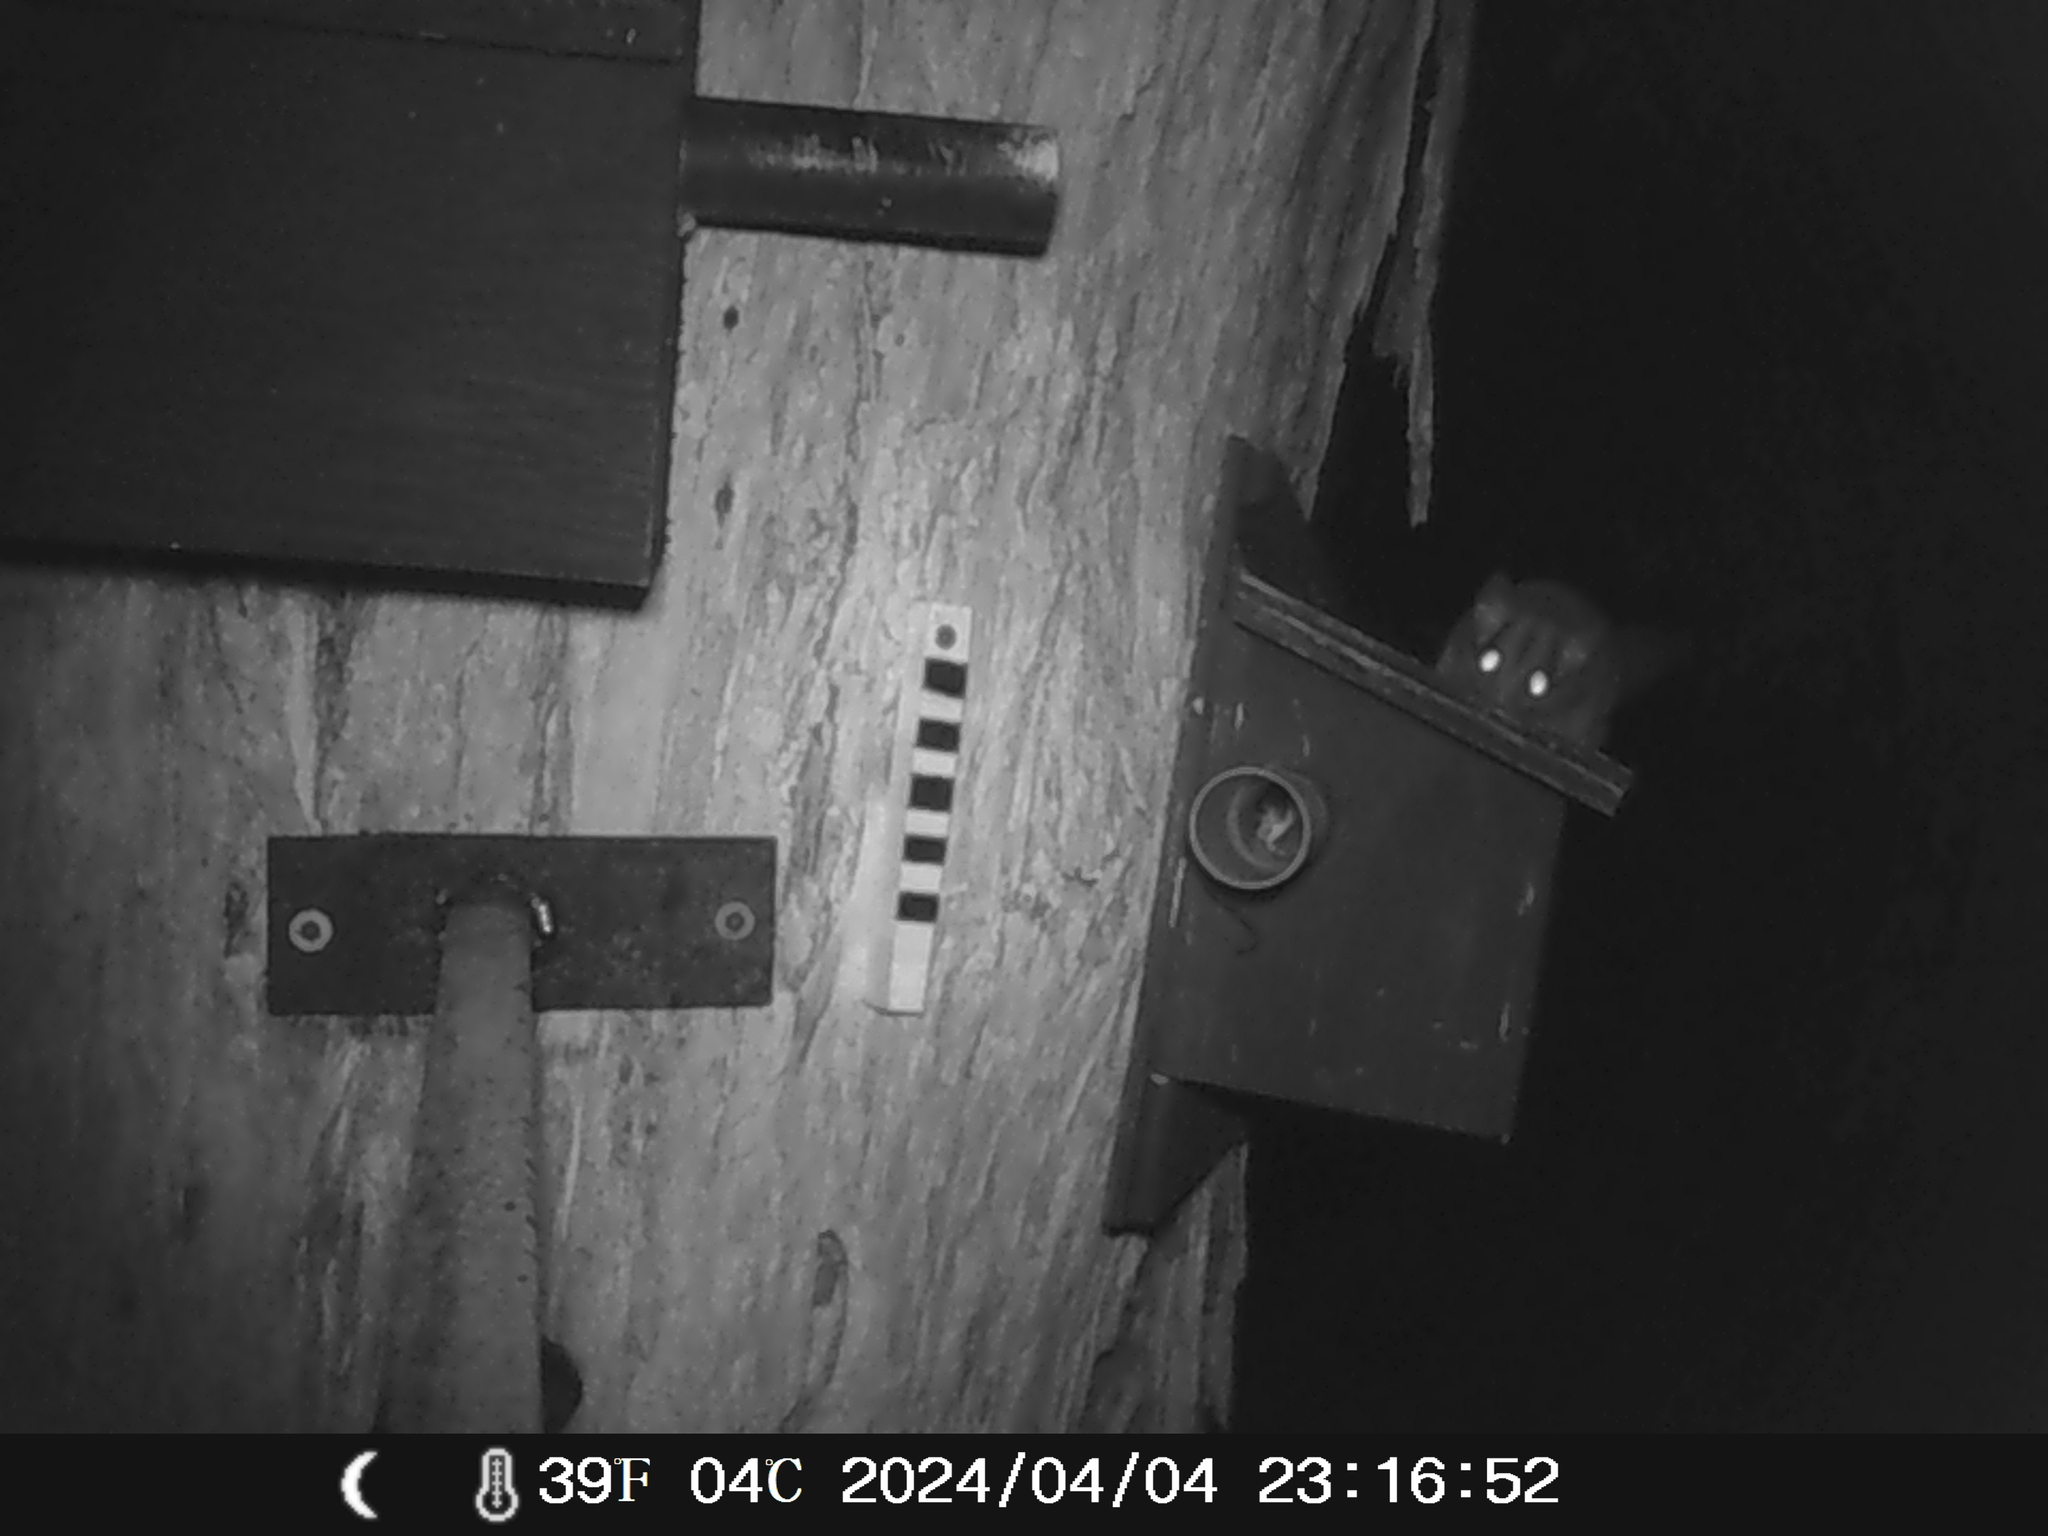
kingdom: Animalia
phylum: Chordata
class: Mammalia
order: Diprotodontia
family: Petauridae
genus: Petaurus
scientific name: Petaurus breviceps
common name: Sugar glider
